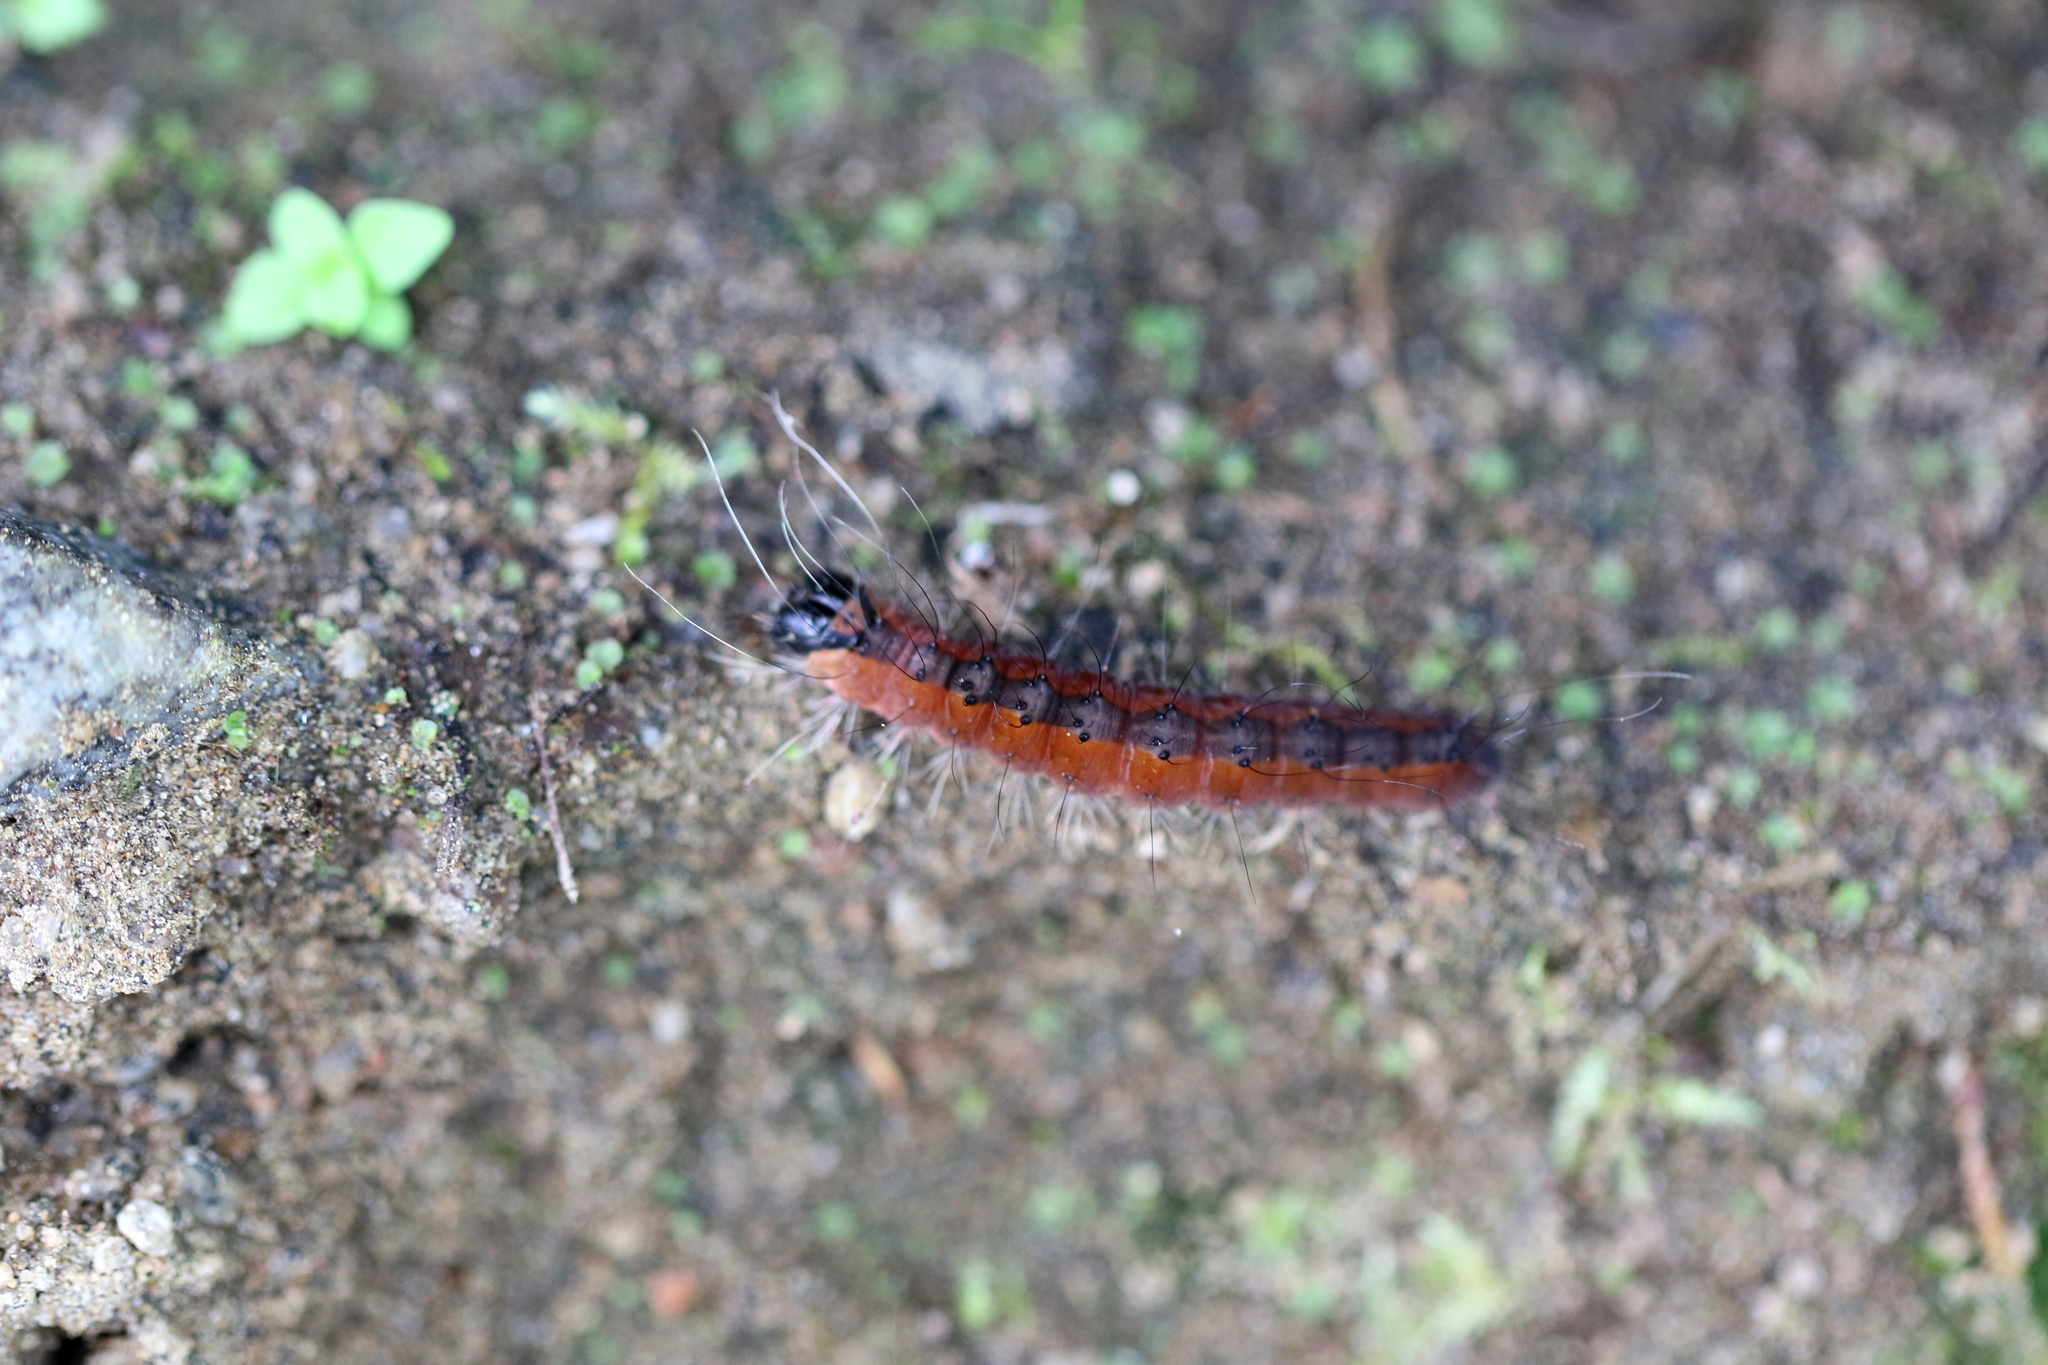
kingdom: Animalia
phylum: Arthropoda
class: Insecta
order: Lepidoptera
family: Noctuidae
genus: Acronicta
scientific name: Acronicta superans
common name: Splendid dagger
